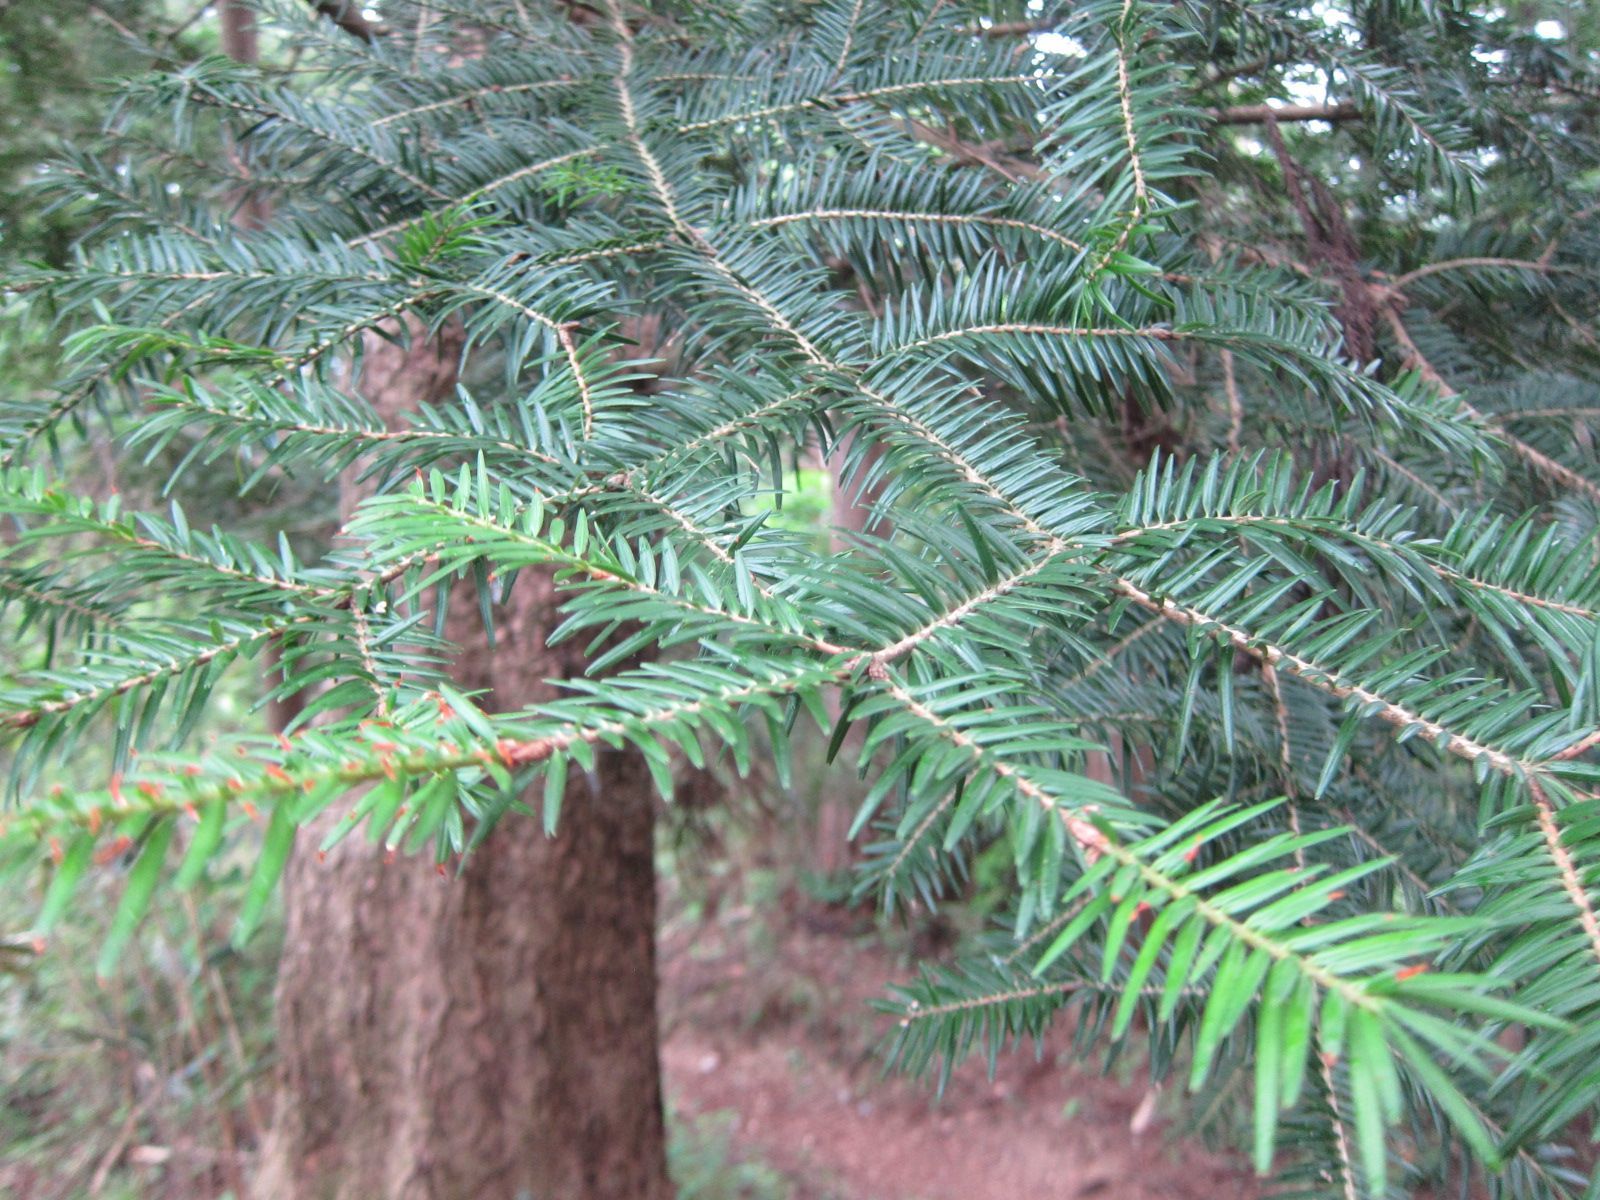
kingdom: Plantae
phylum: Tracheophyta
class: Pinopsida
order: Pinales
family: Pinaceae
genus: Abies
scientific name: Abies firma
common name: Momi fir
